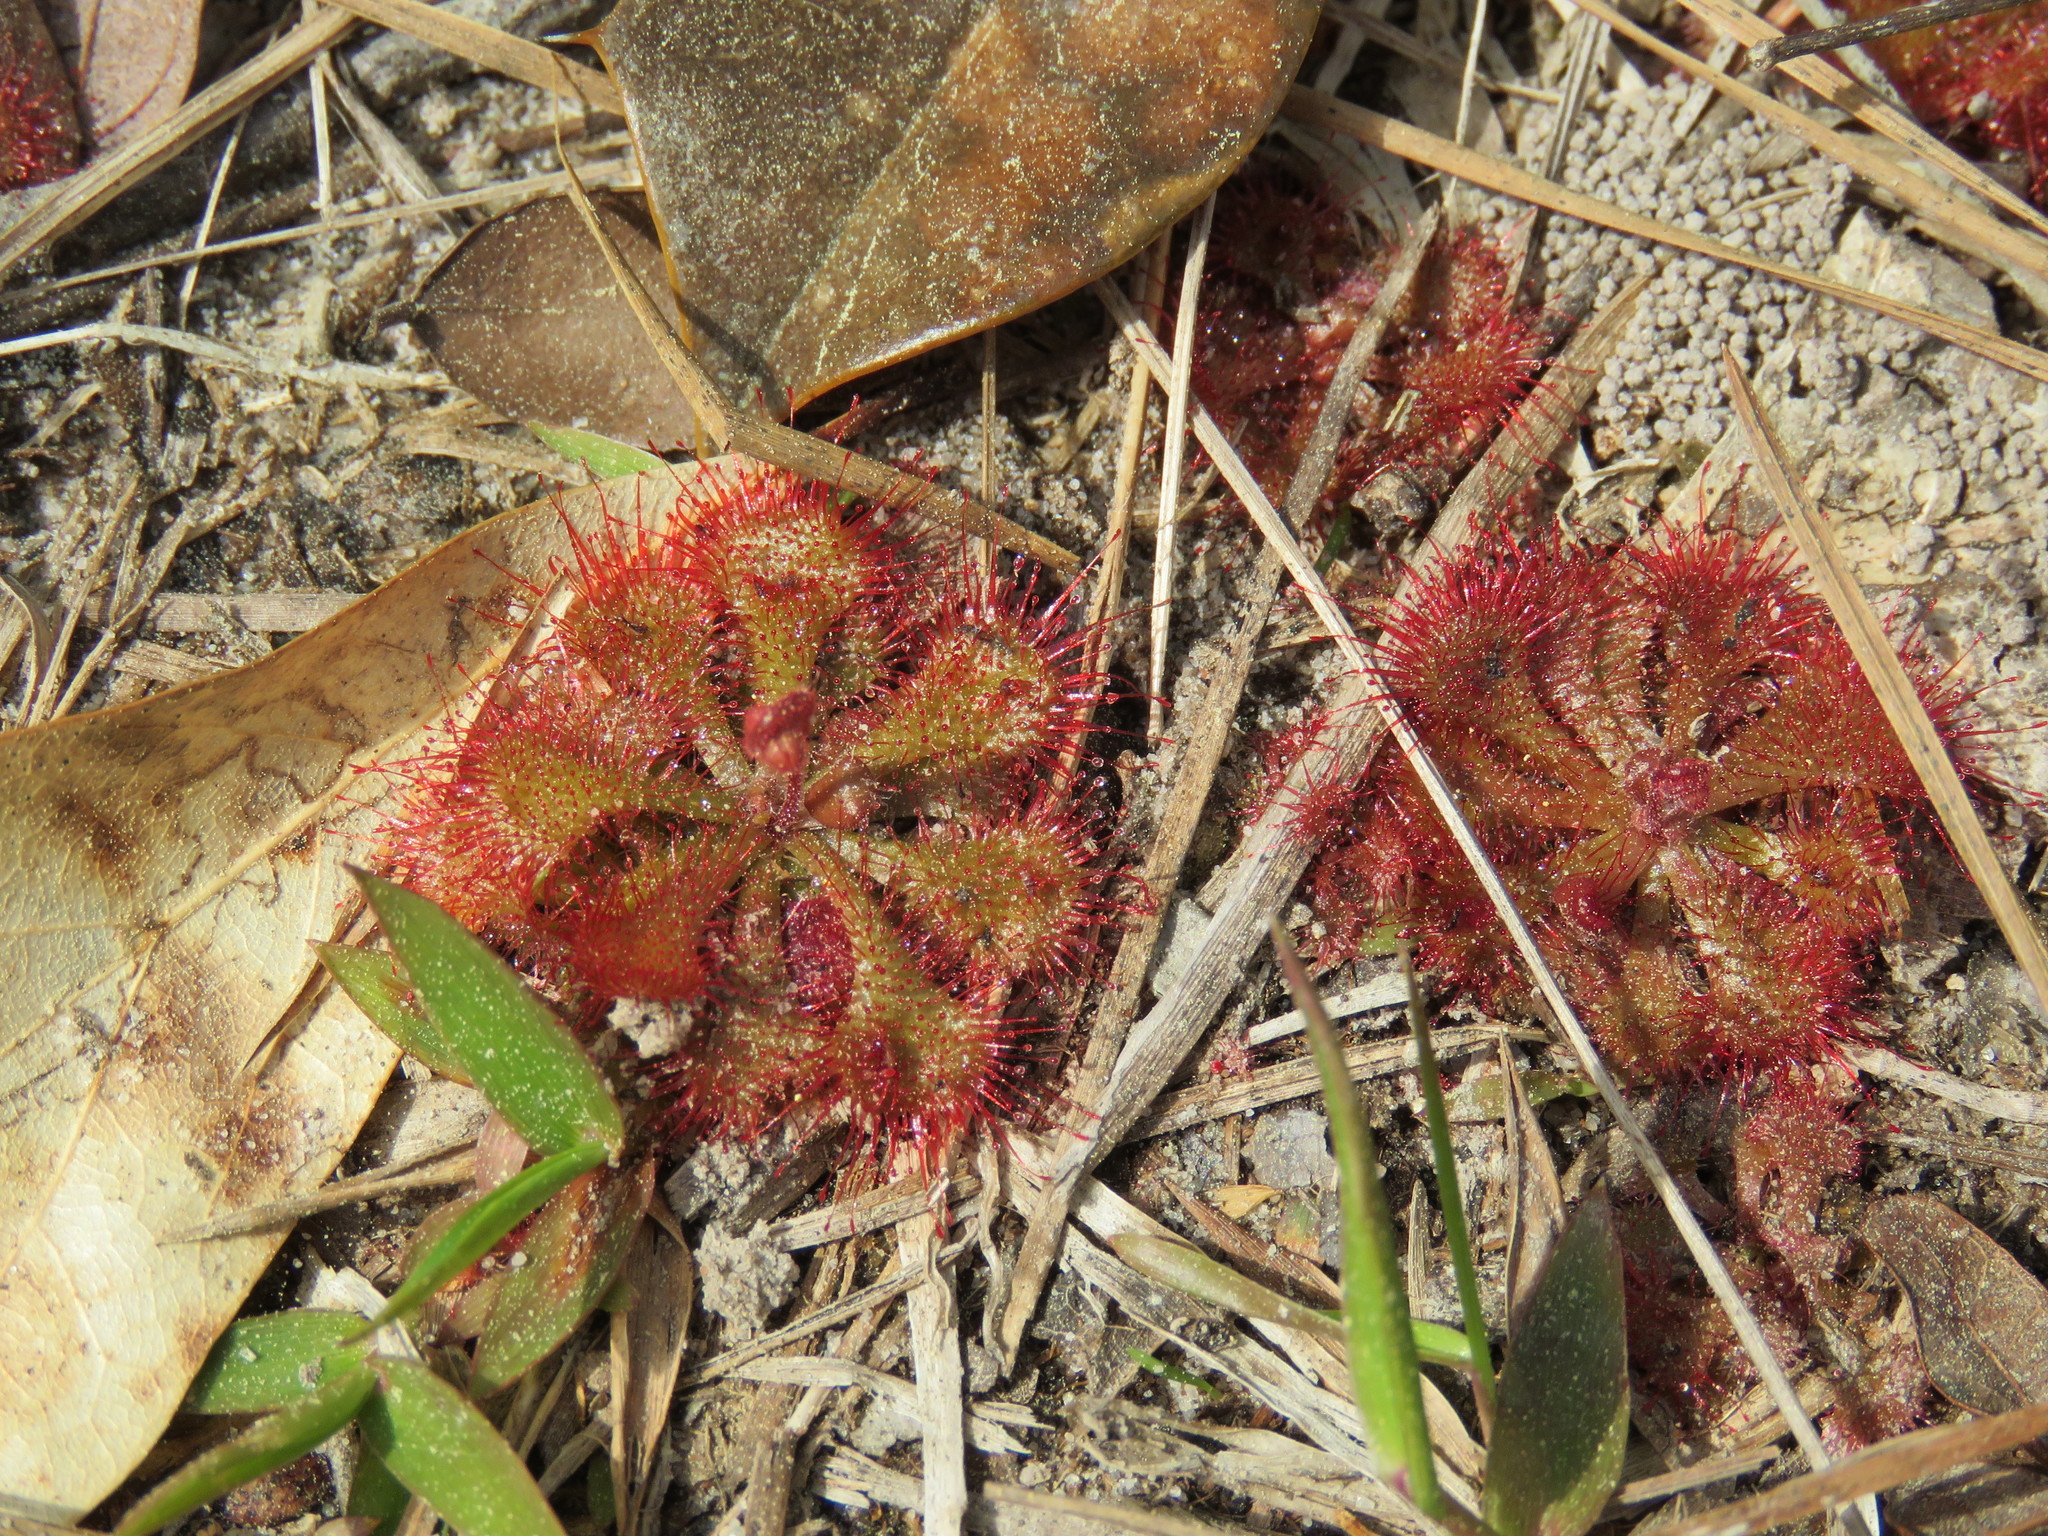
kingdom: Plantae
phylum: Tracheophyta
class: Magnoliopsida
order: Caryophyllales
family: Droseraceae
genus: Drosera
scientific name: Drosera brevifolia
